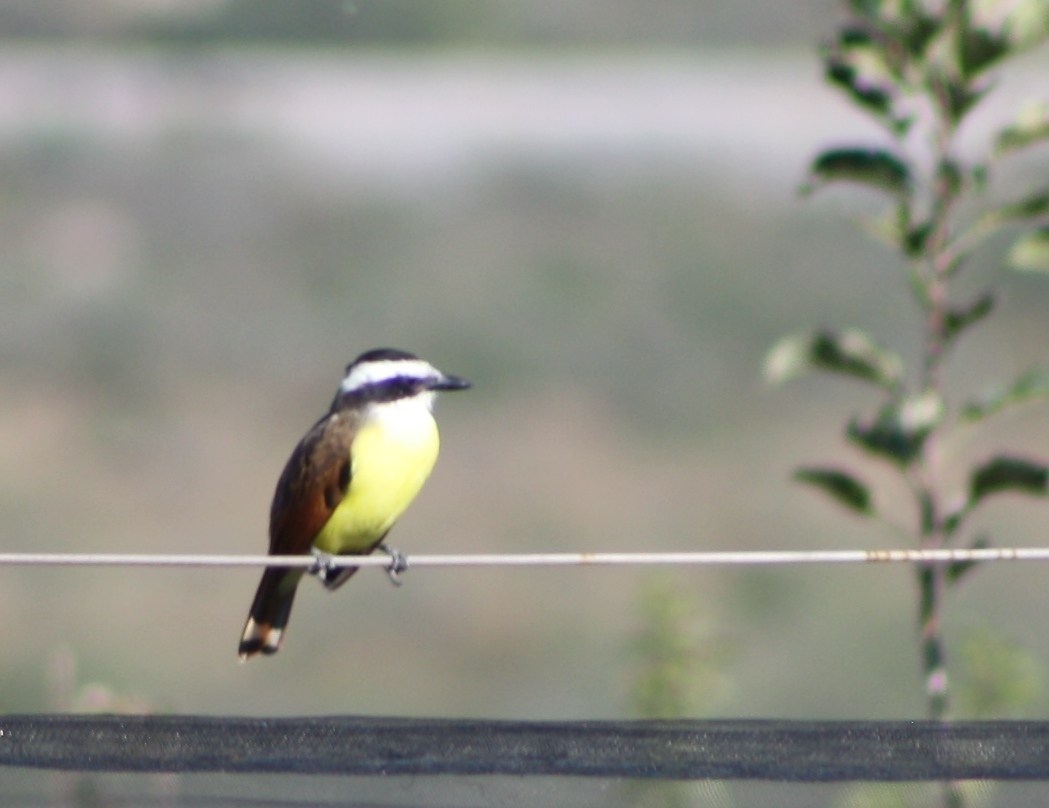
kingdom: Animalia
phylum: Chordata
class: Aves
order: Passeriformes
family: Tyrannidae
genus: Pitangus
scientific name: Pitangus sulphuratus
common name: Great kiskadee
